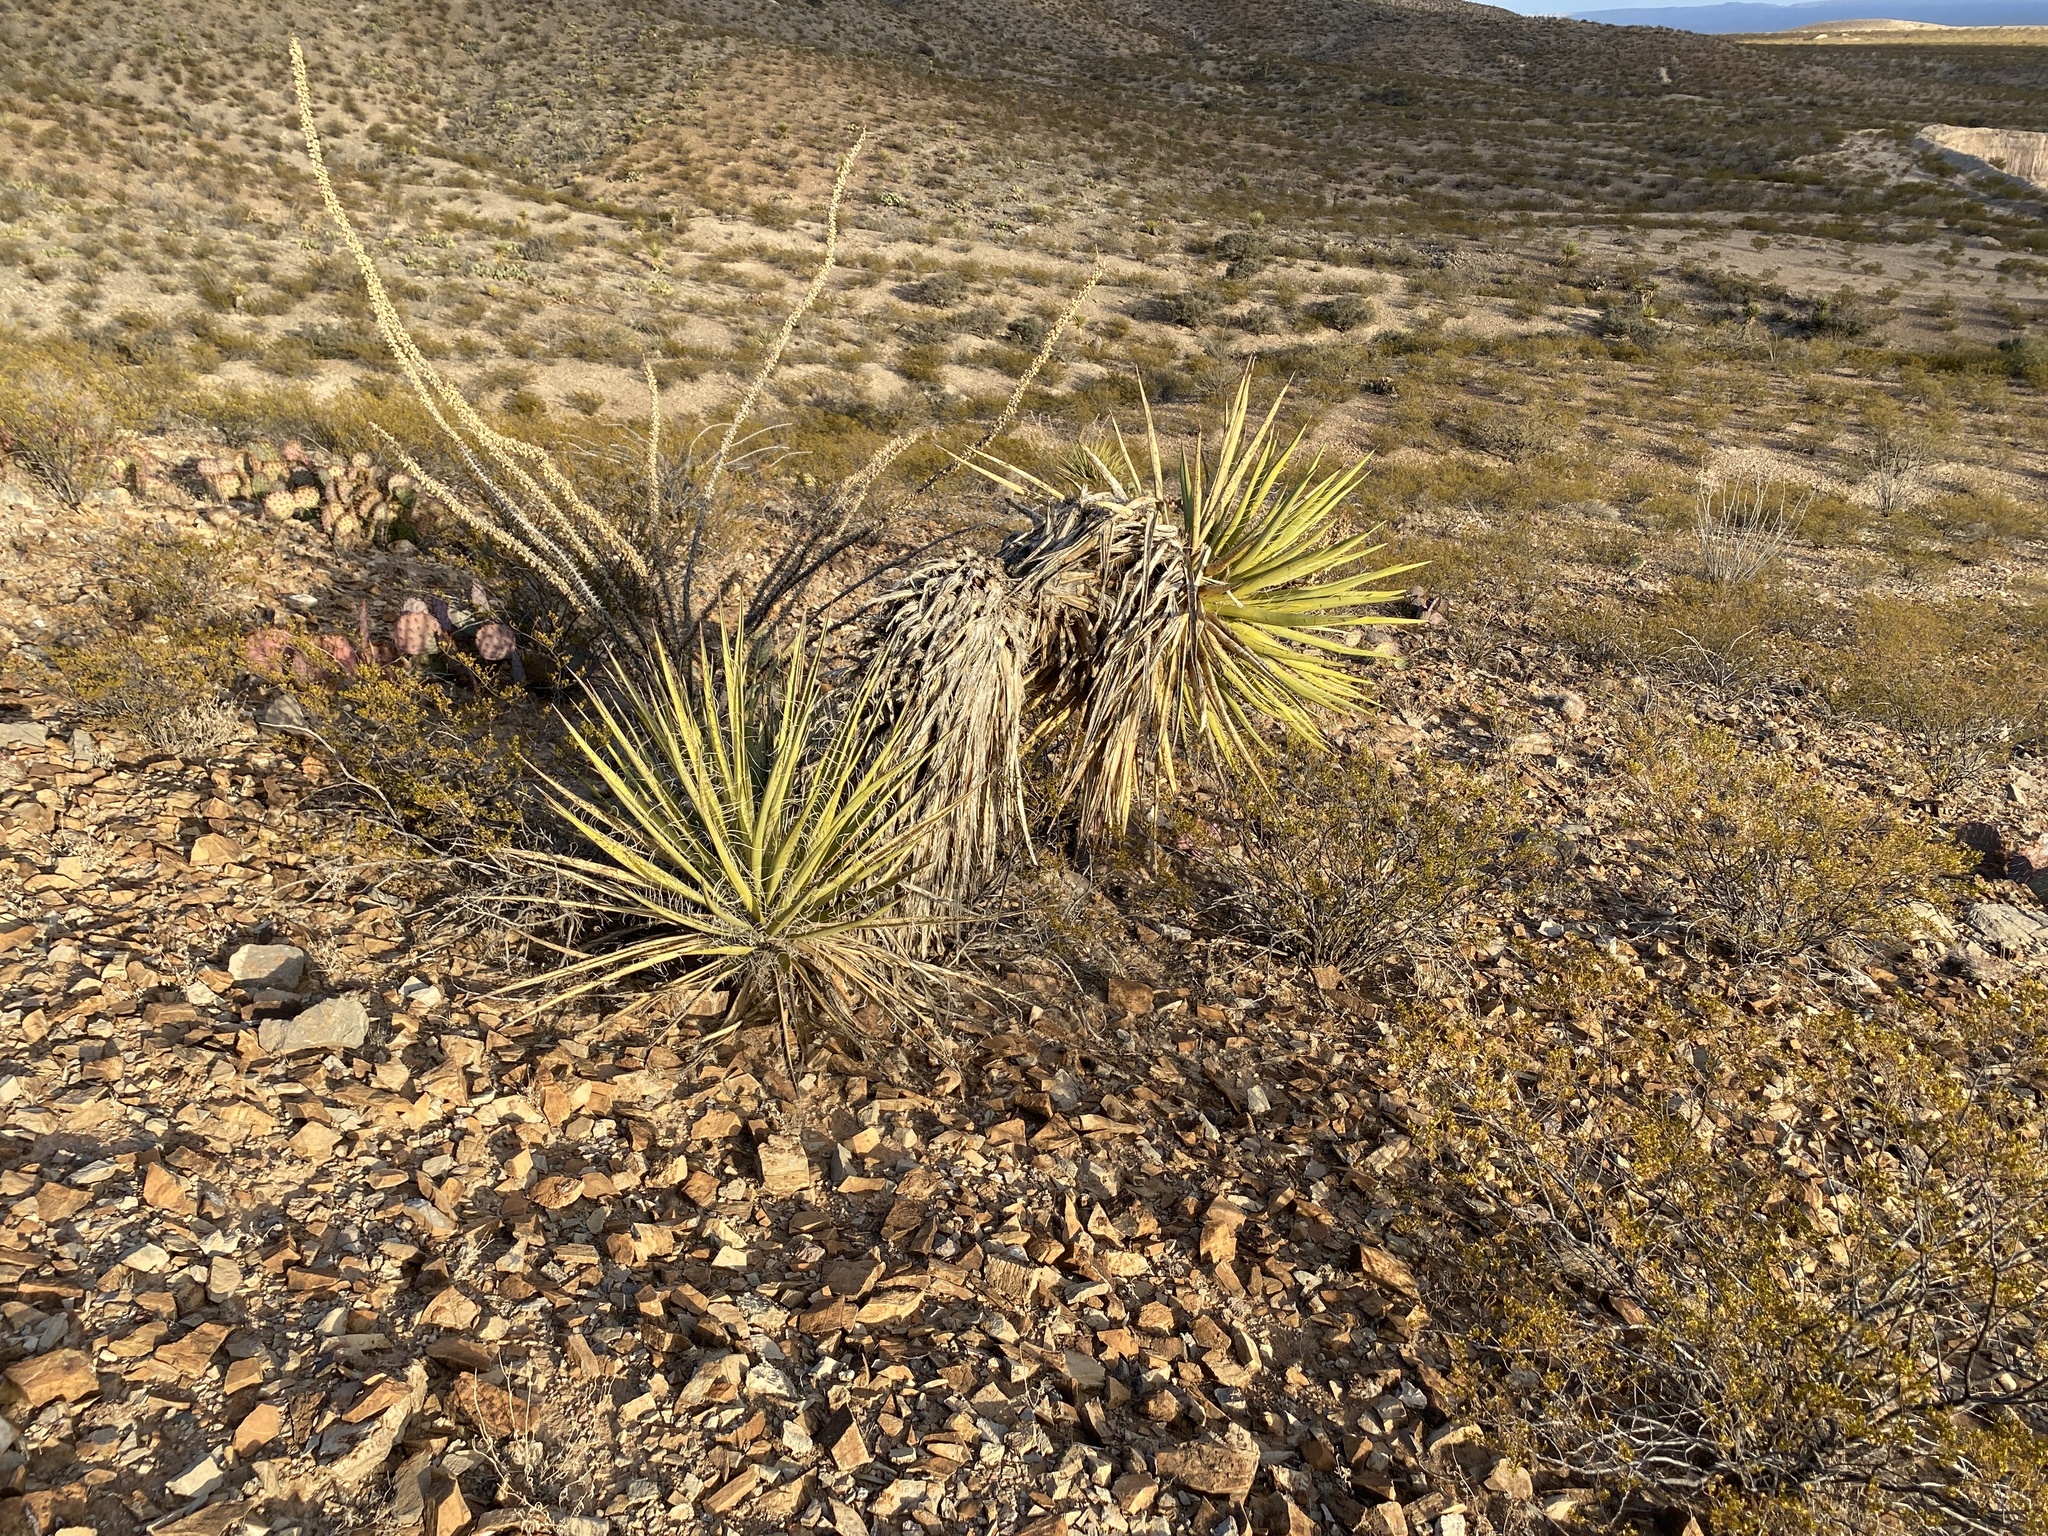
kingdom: Plantae
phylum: Tracheophyta
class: Magnoliopsida
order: Ericales
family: Fouquieriaceae
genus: Fouquieria
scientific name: Fouquieria splendens
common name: Vine-cactus
